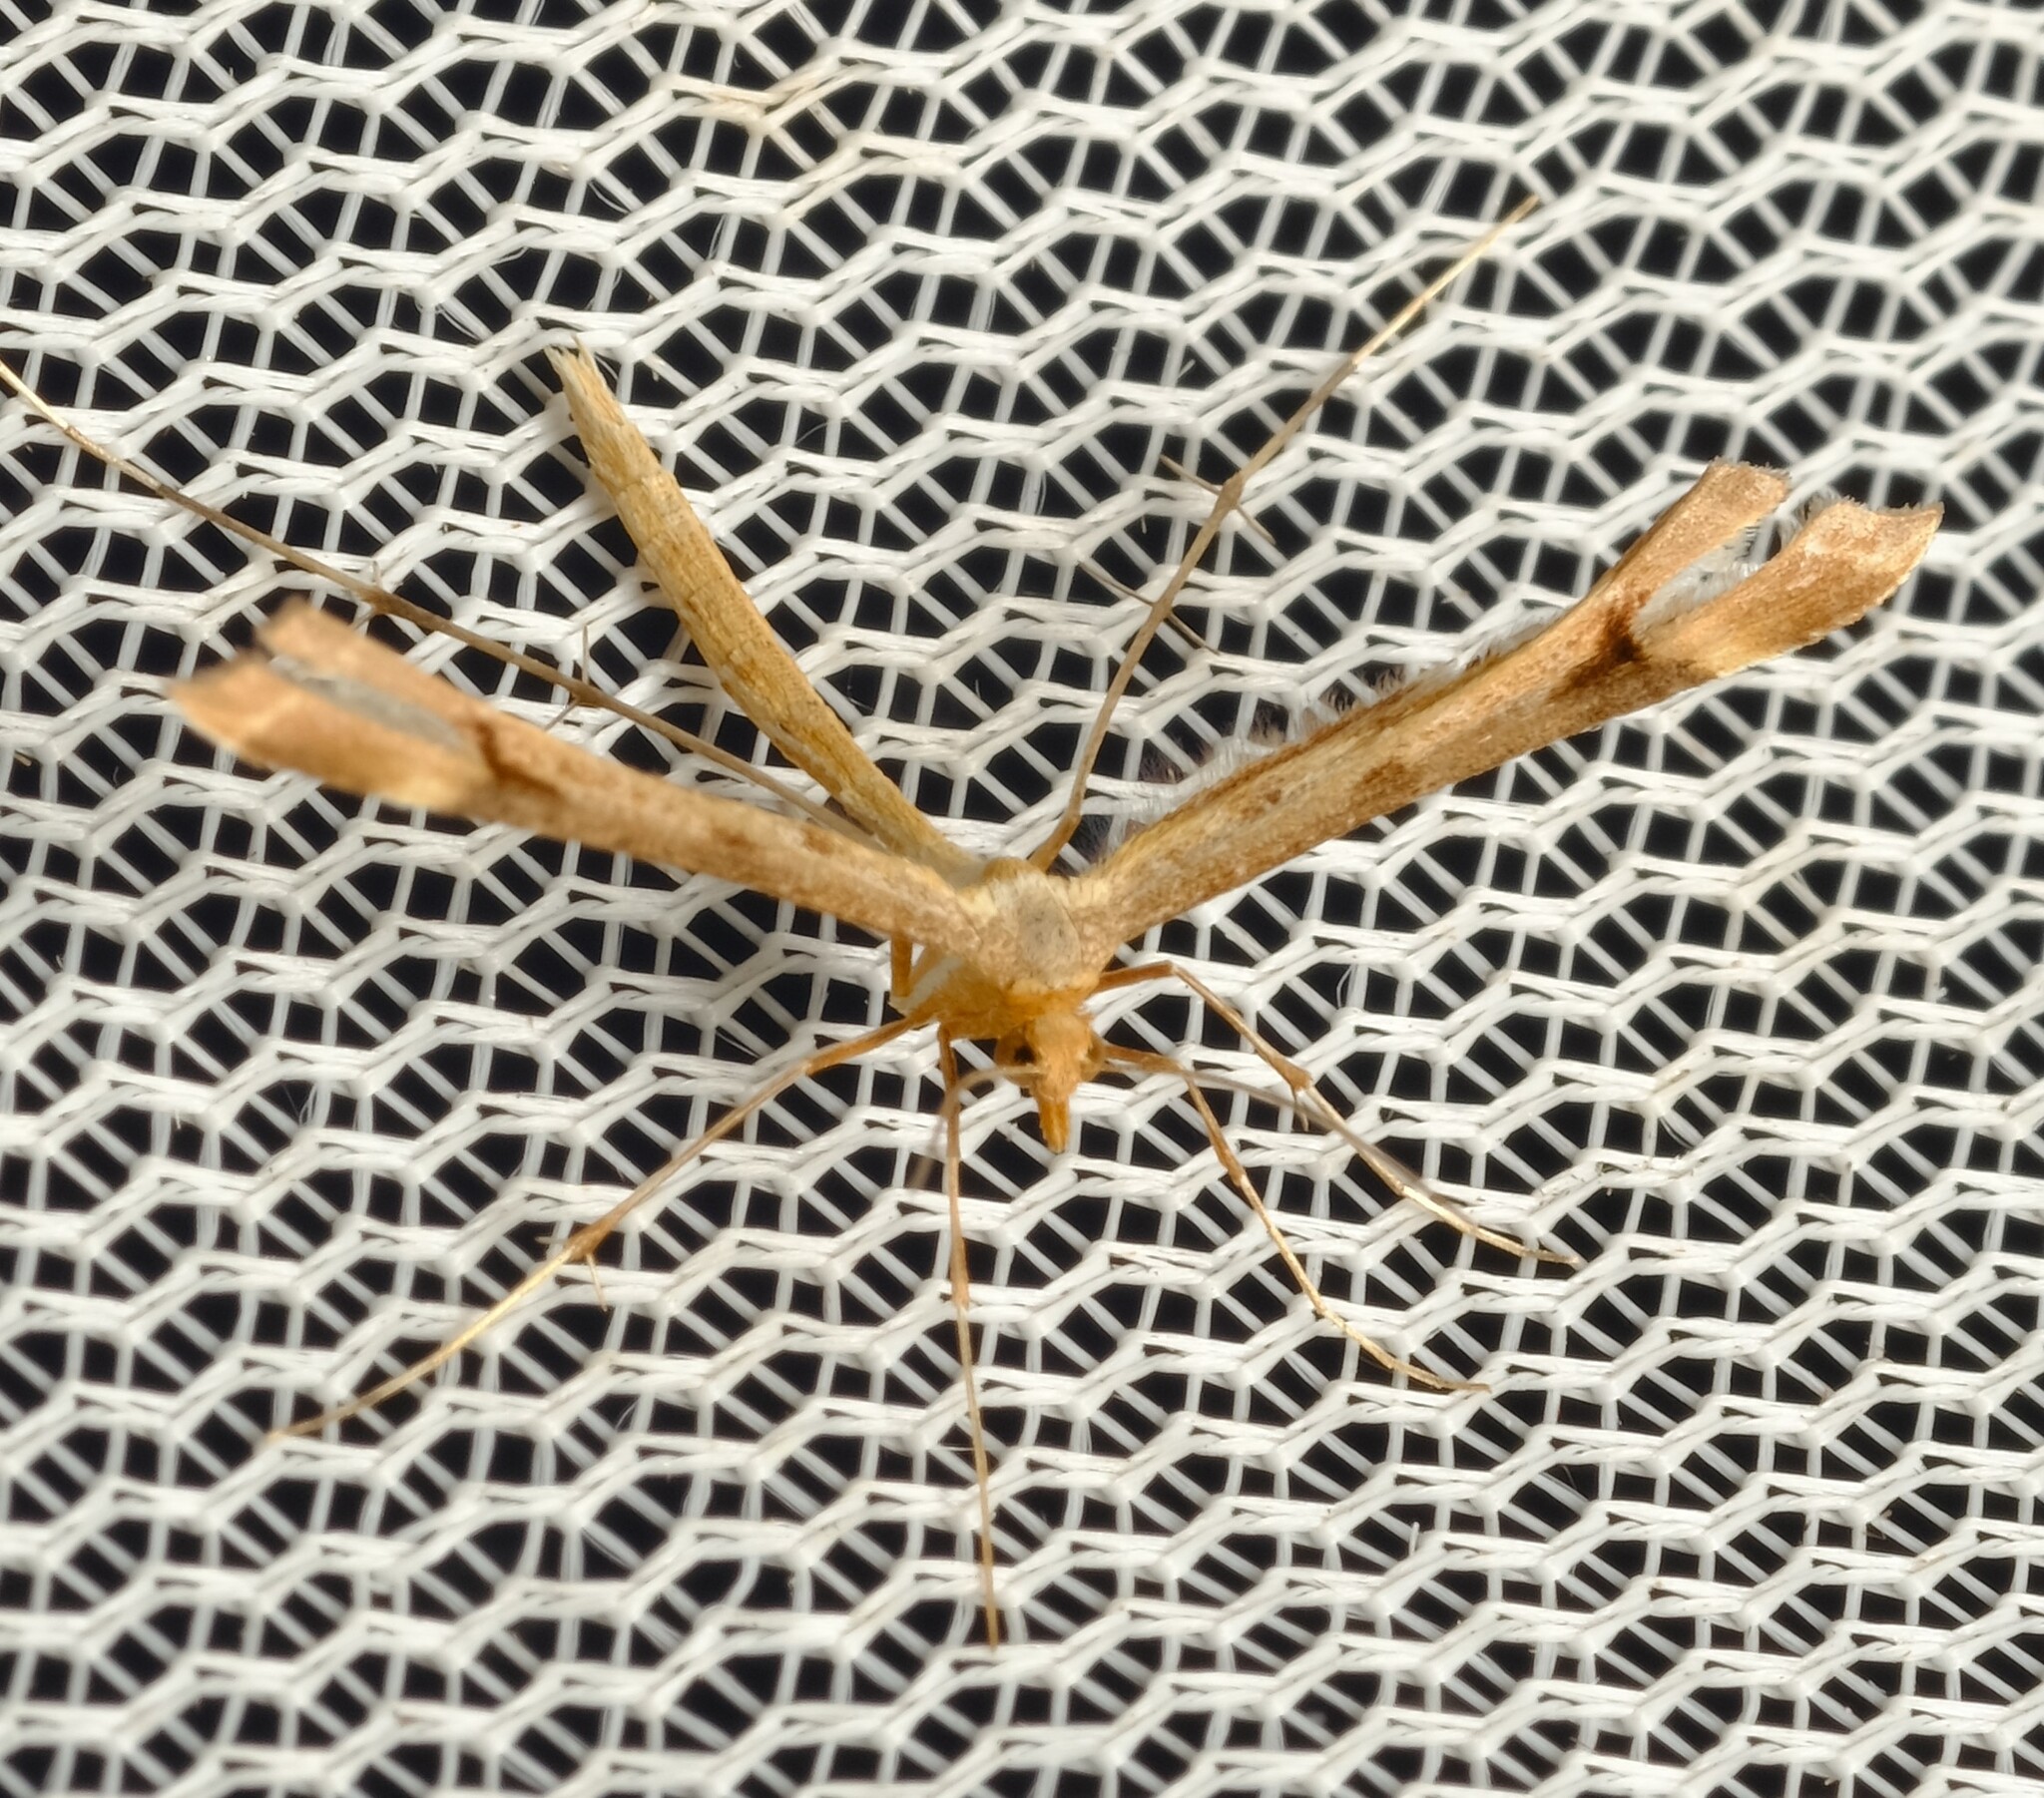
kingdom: Animalia
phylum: Arthropoda
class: Insecta
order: Lepidoptera
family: Pterophoridae
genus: Sinpunctiptilia
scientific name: Sinpunctiptilia emissalis
